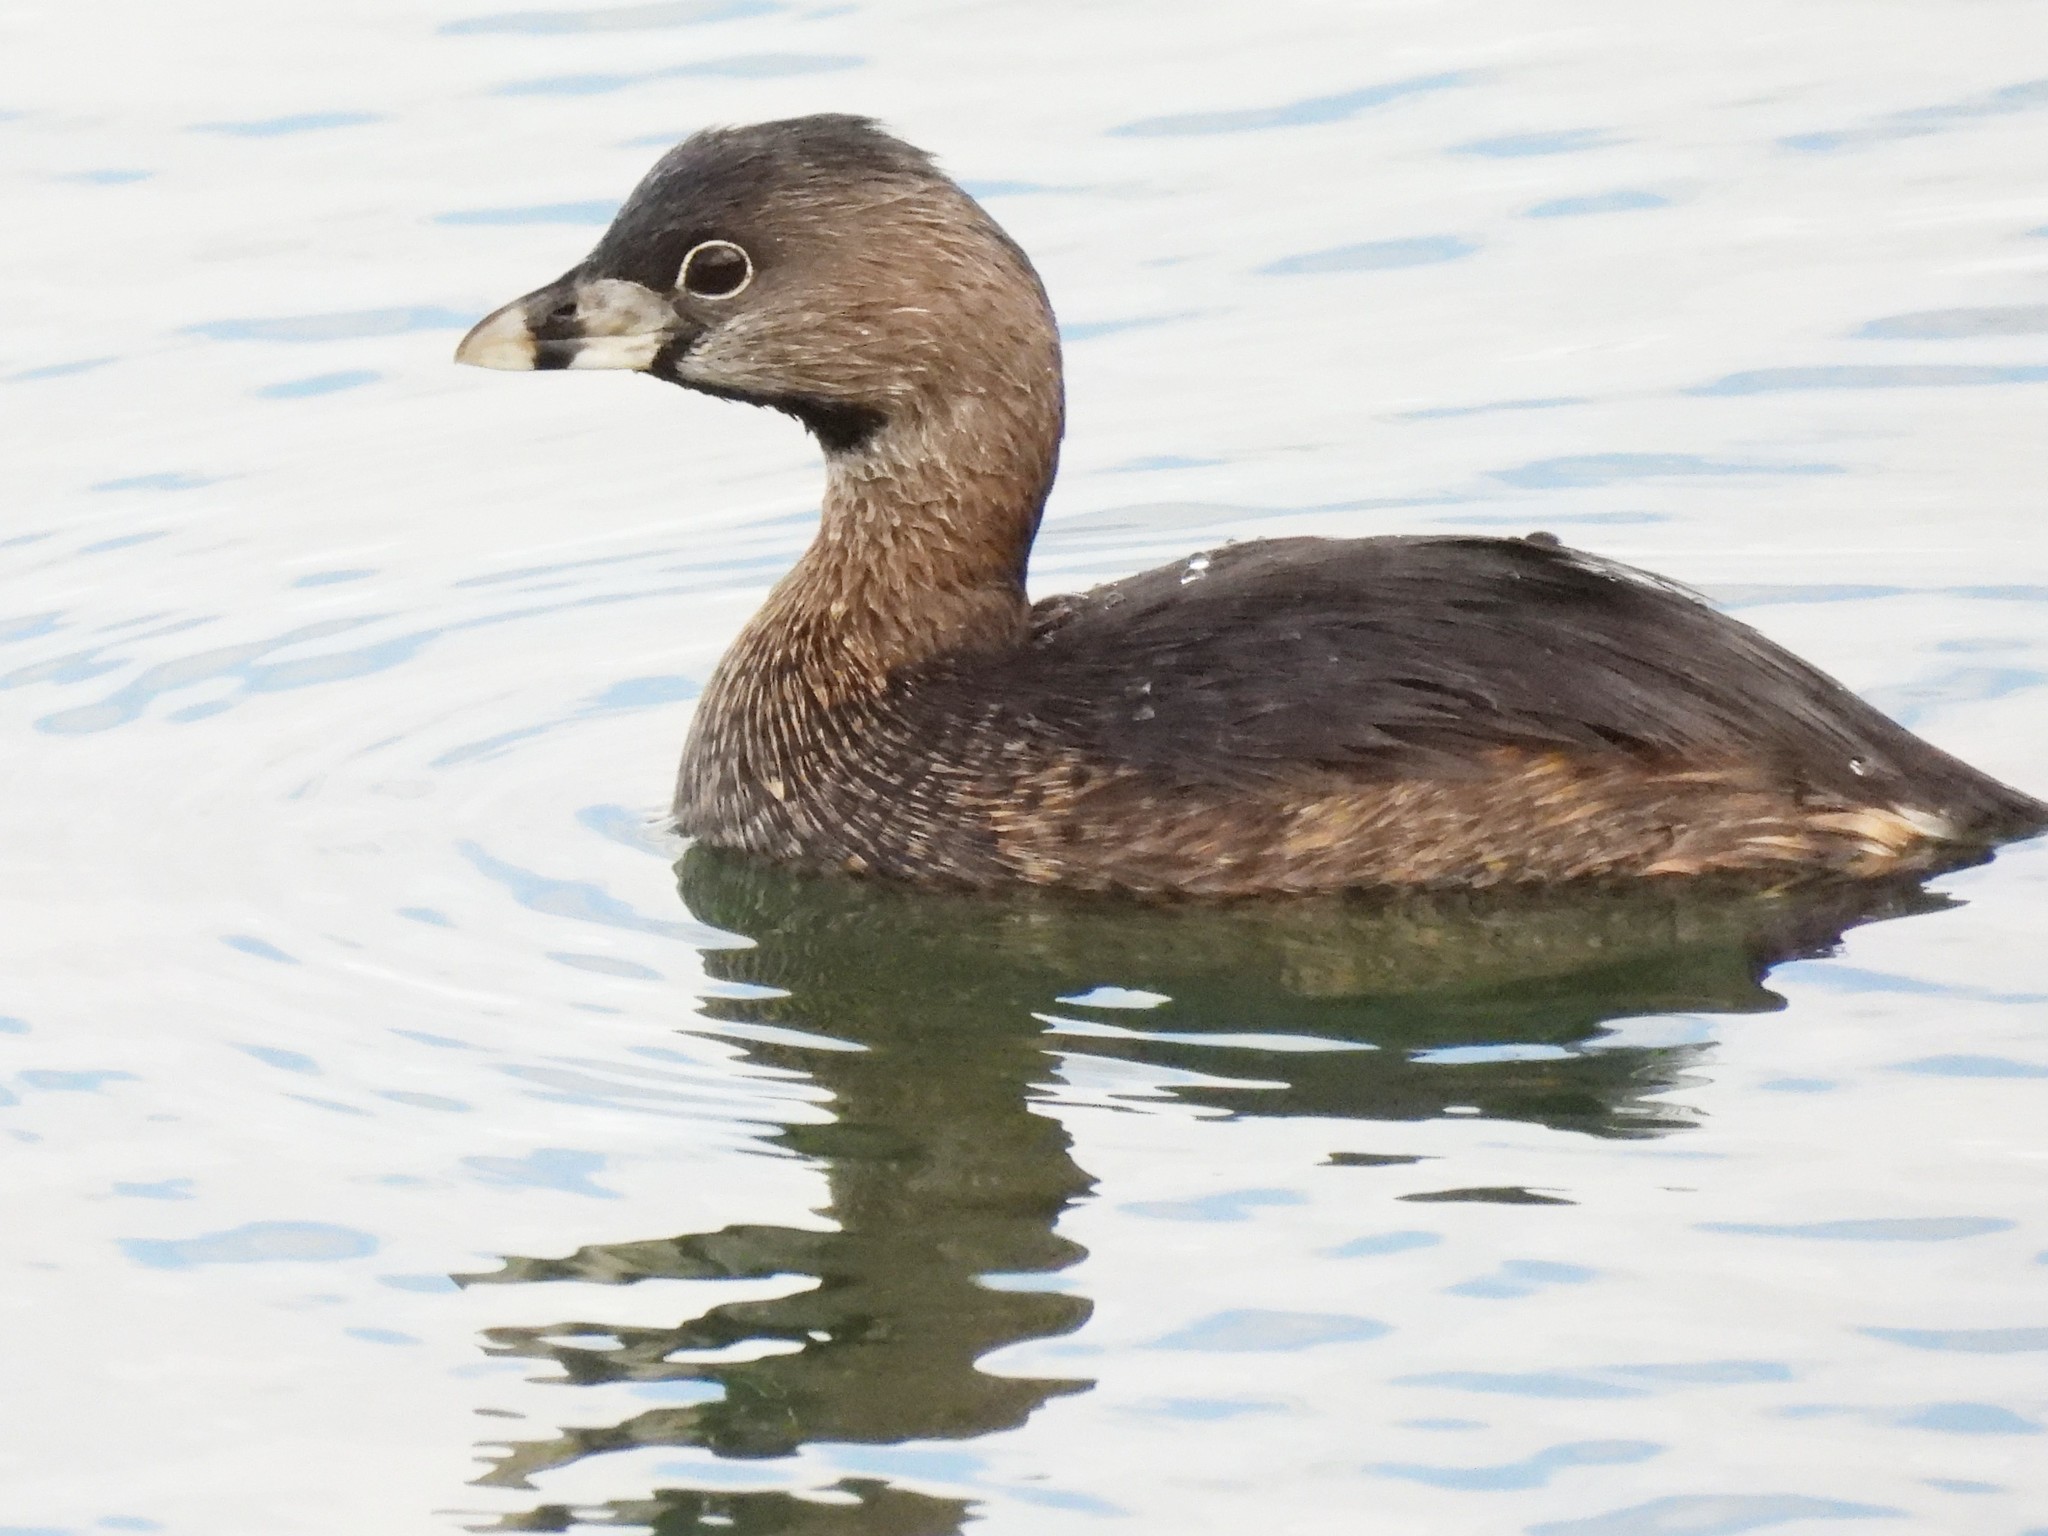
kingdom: Animalia
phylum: Chordata
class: Aves
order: Podicipediformes
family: Podicipedidae
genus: Podilymbus
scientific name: Podilymbus podiceps
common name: Pied-billed grebe
